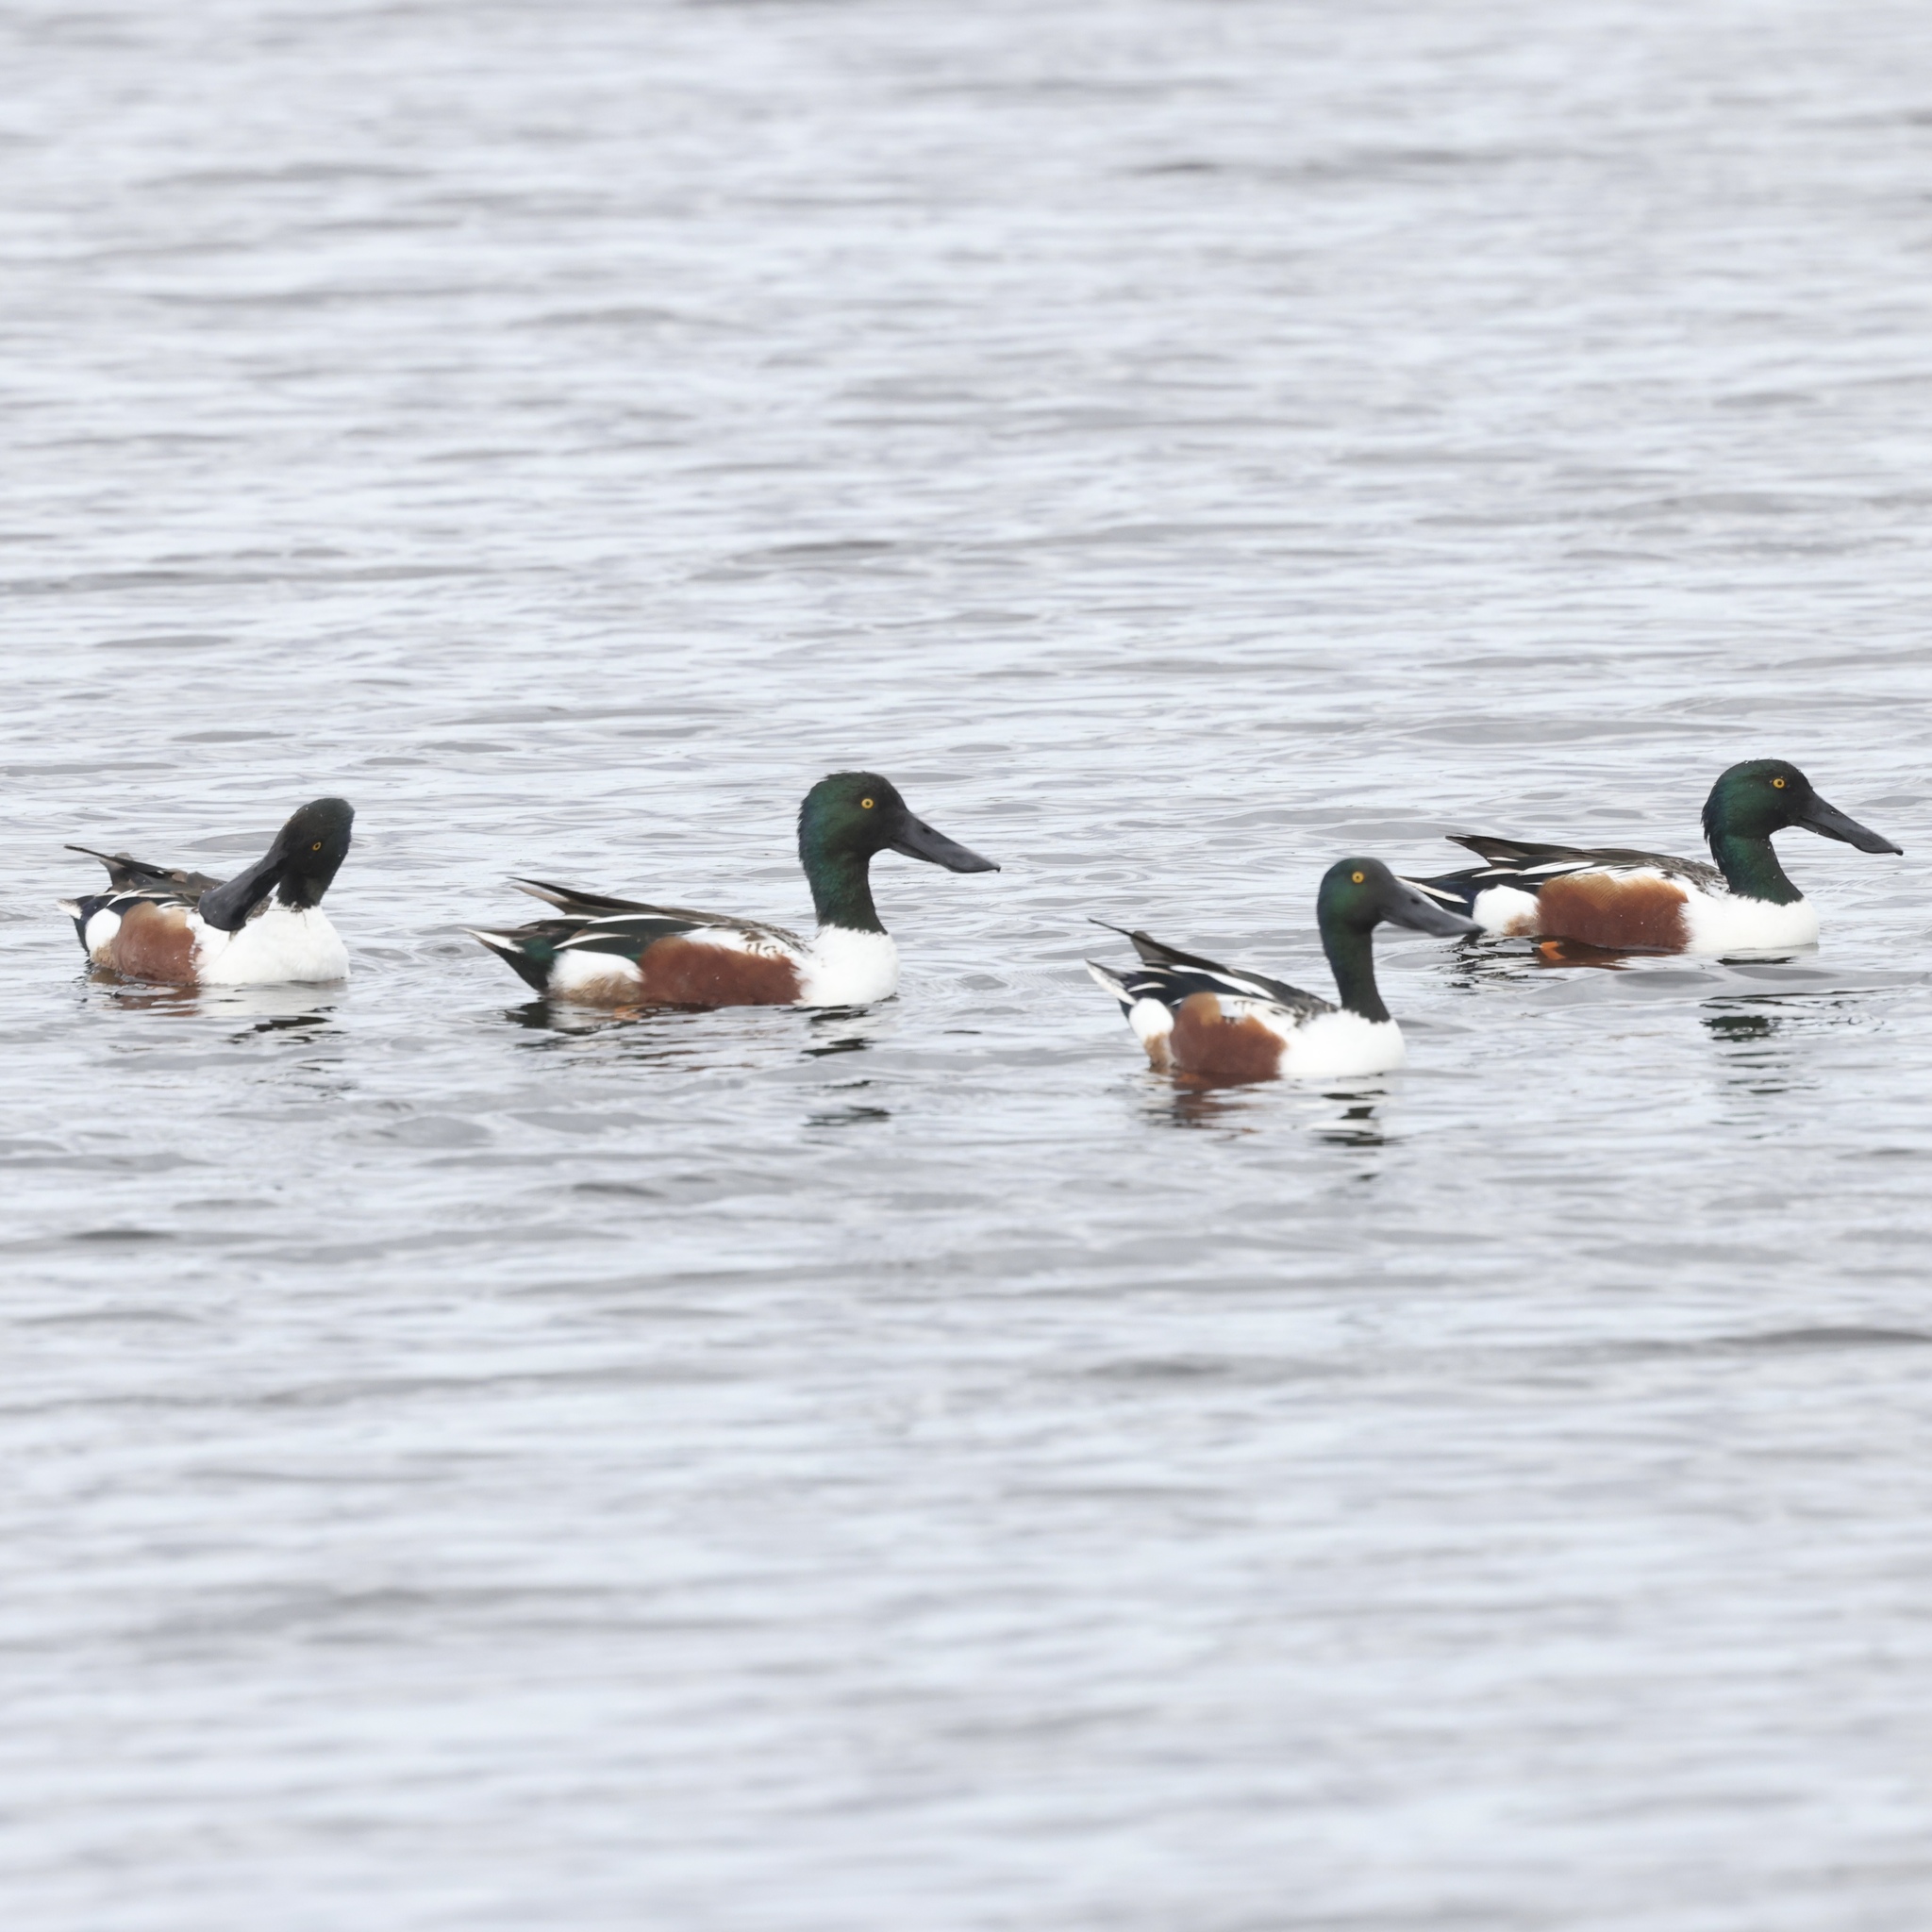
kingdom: Animalia
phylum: Chordata
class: Aves
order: Anseriformes
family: Anatidae
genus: Spatula
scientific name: Spatula clypeata
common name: Northern shoveler
